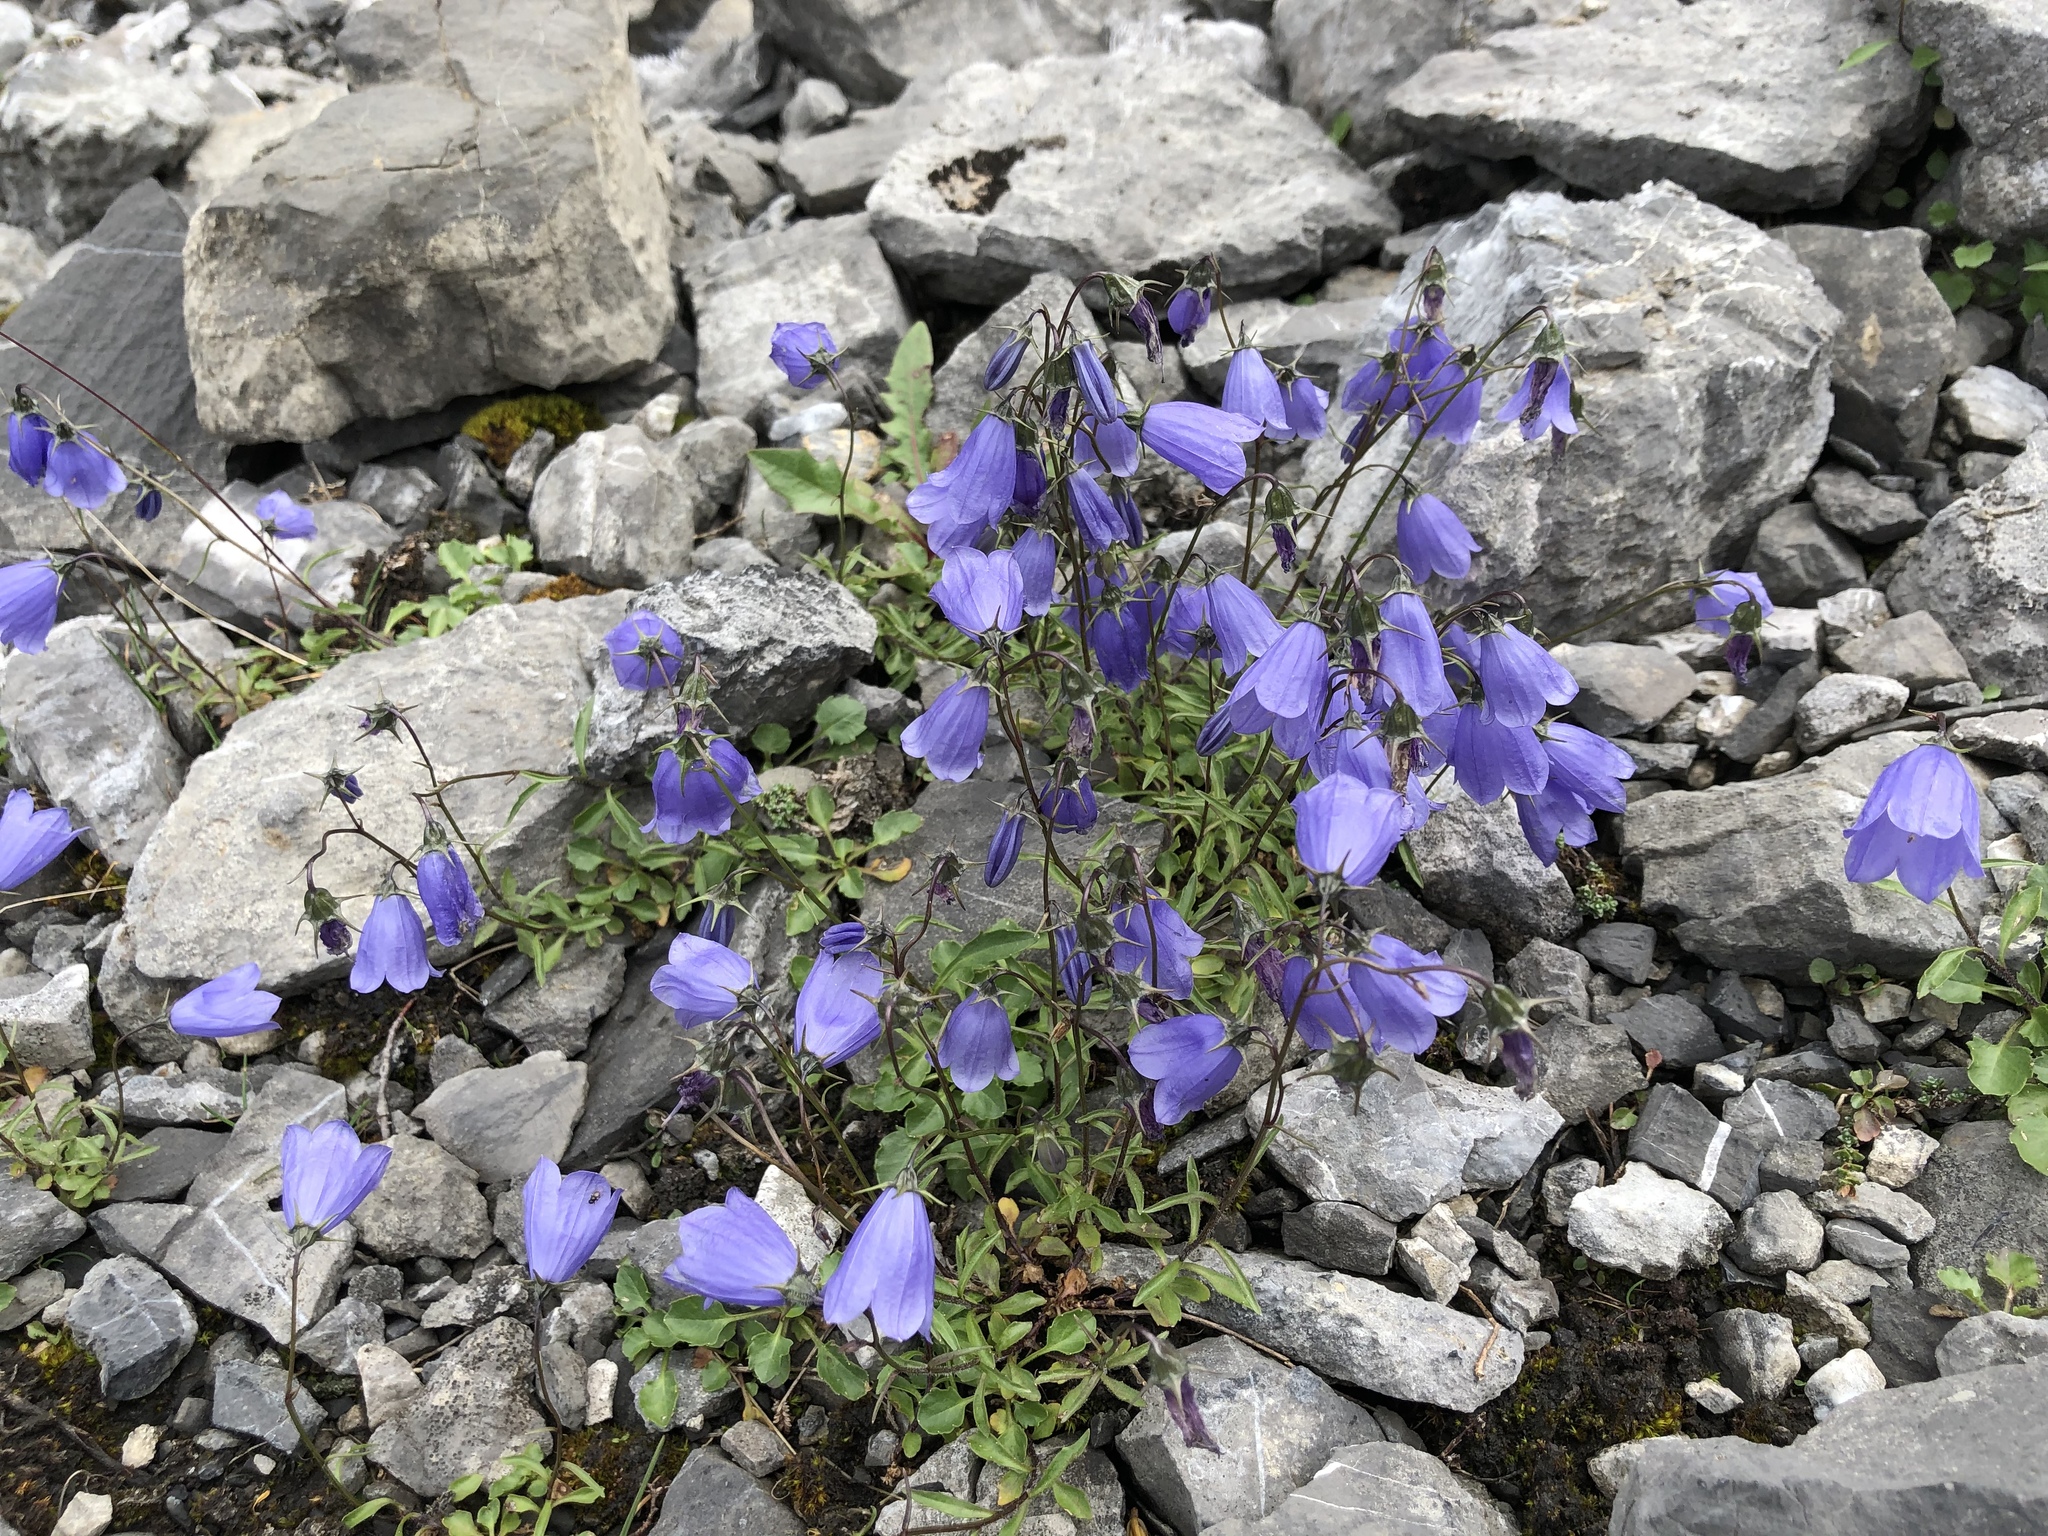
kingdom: Plantae
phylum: Tracheophyta
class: Magnoliopsida
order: Asterales
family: Campanulaceae
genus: Campanula
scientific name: Campanula cochleariifolia
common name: Fairies'-thimbles
